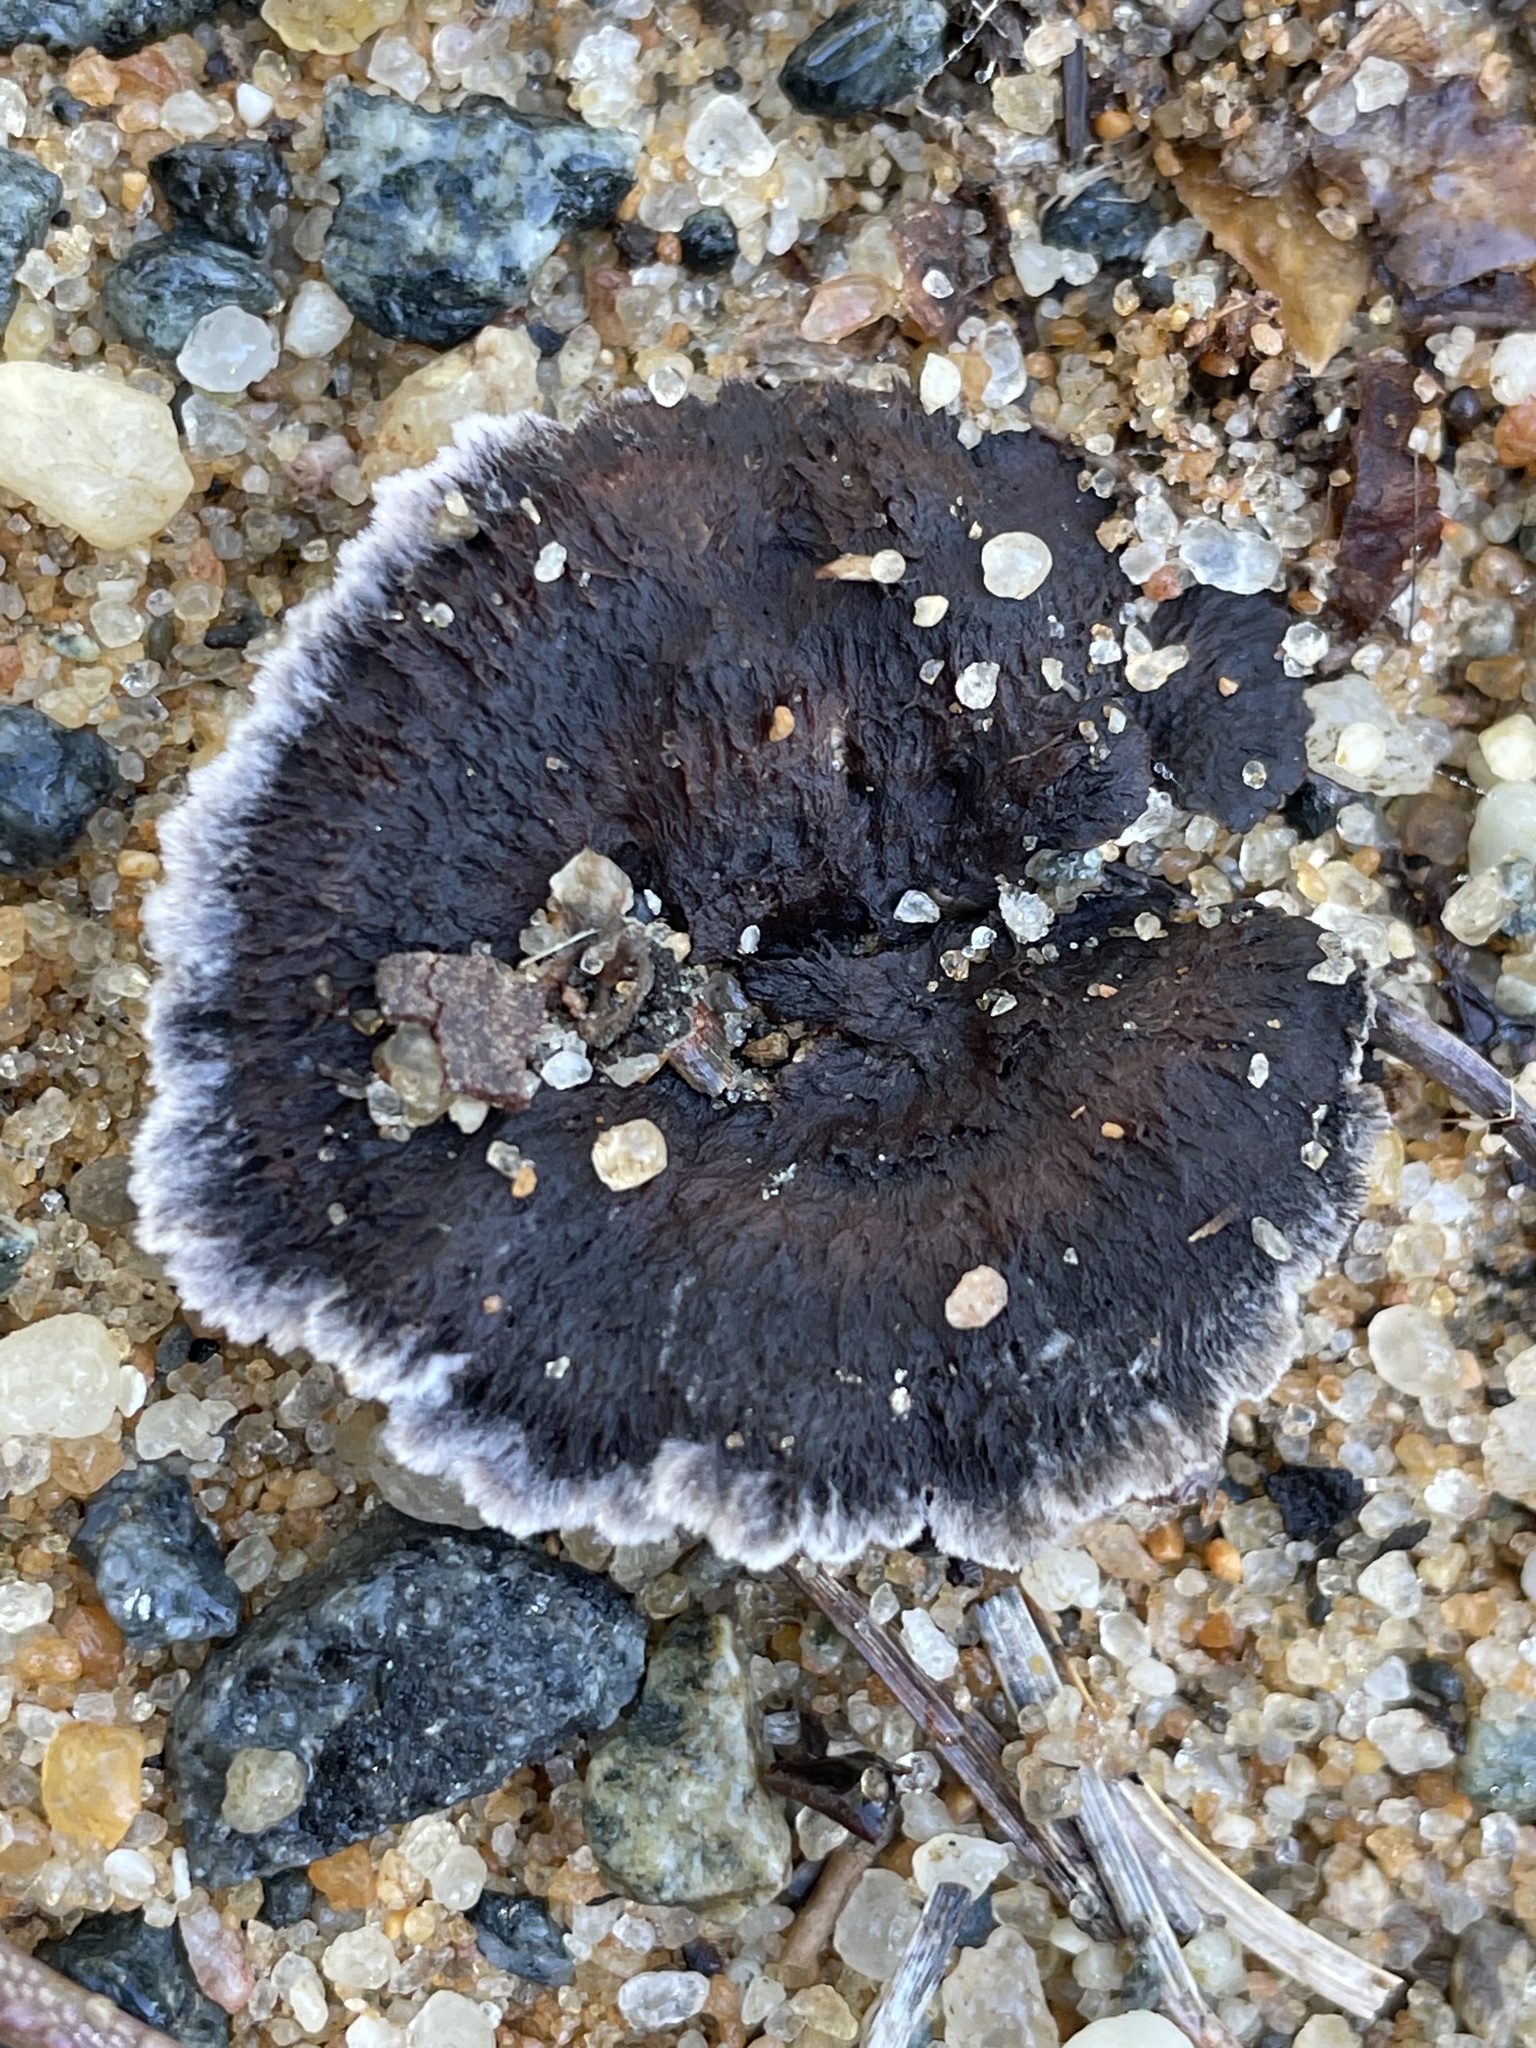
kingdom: Fungi
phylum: Basidiomycota
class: Agaricomycetes
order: Thelephorales
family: Thelephoraceae
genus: Thelephora
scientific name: Thelephora terrestris
